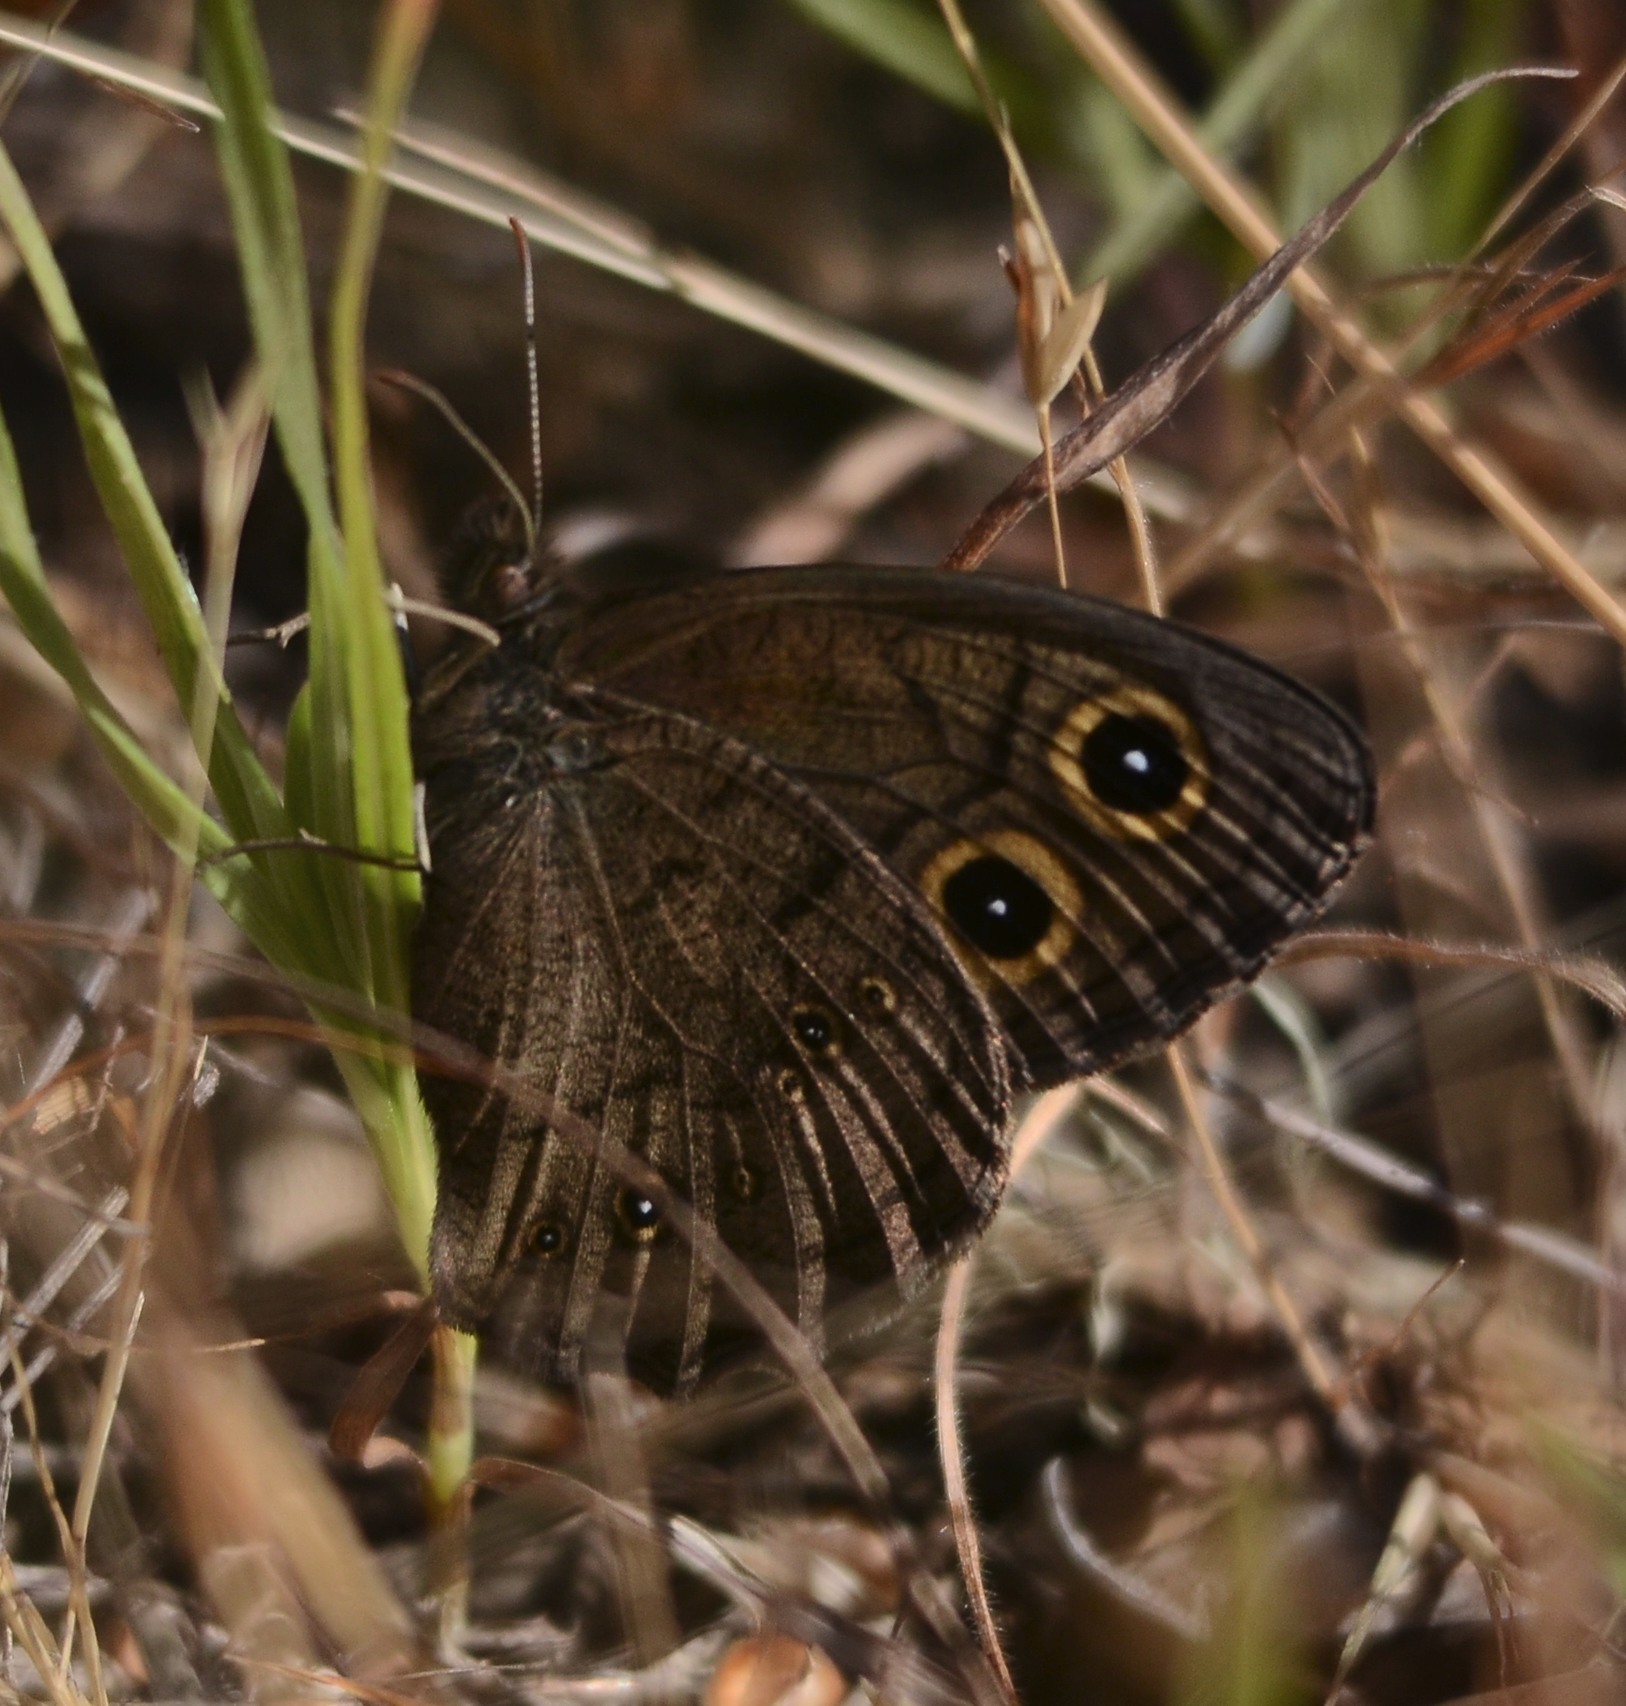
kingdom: Animalia
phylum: Arthropoda
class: Insecta
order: Lepidoptera
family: Nymphalidae
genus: Cercyonis
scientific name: Cercyonis pegala
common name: Common wood-nymph
